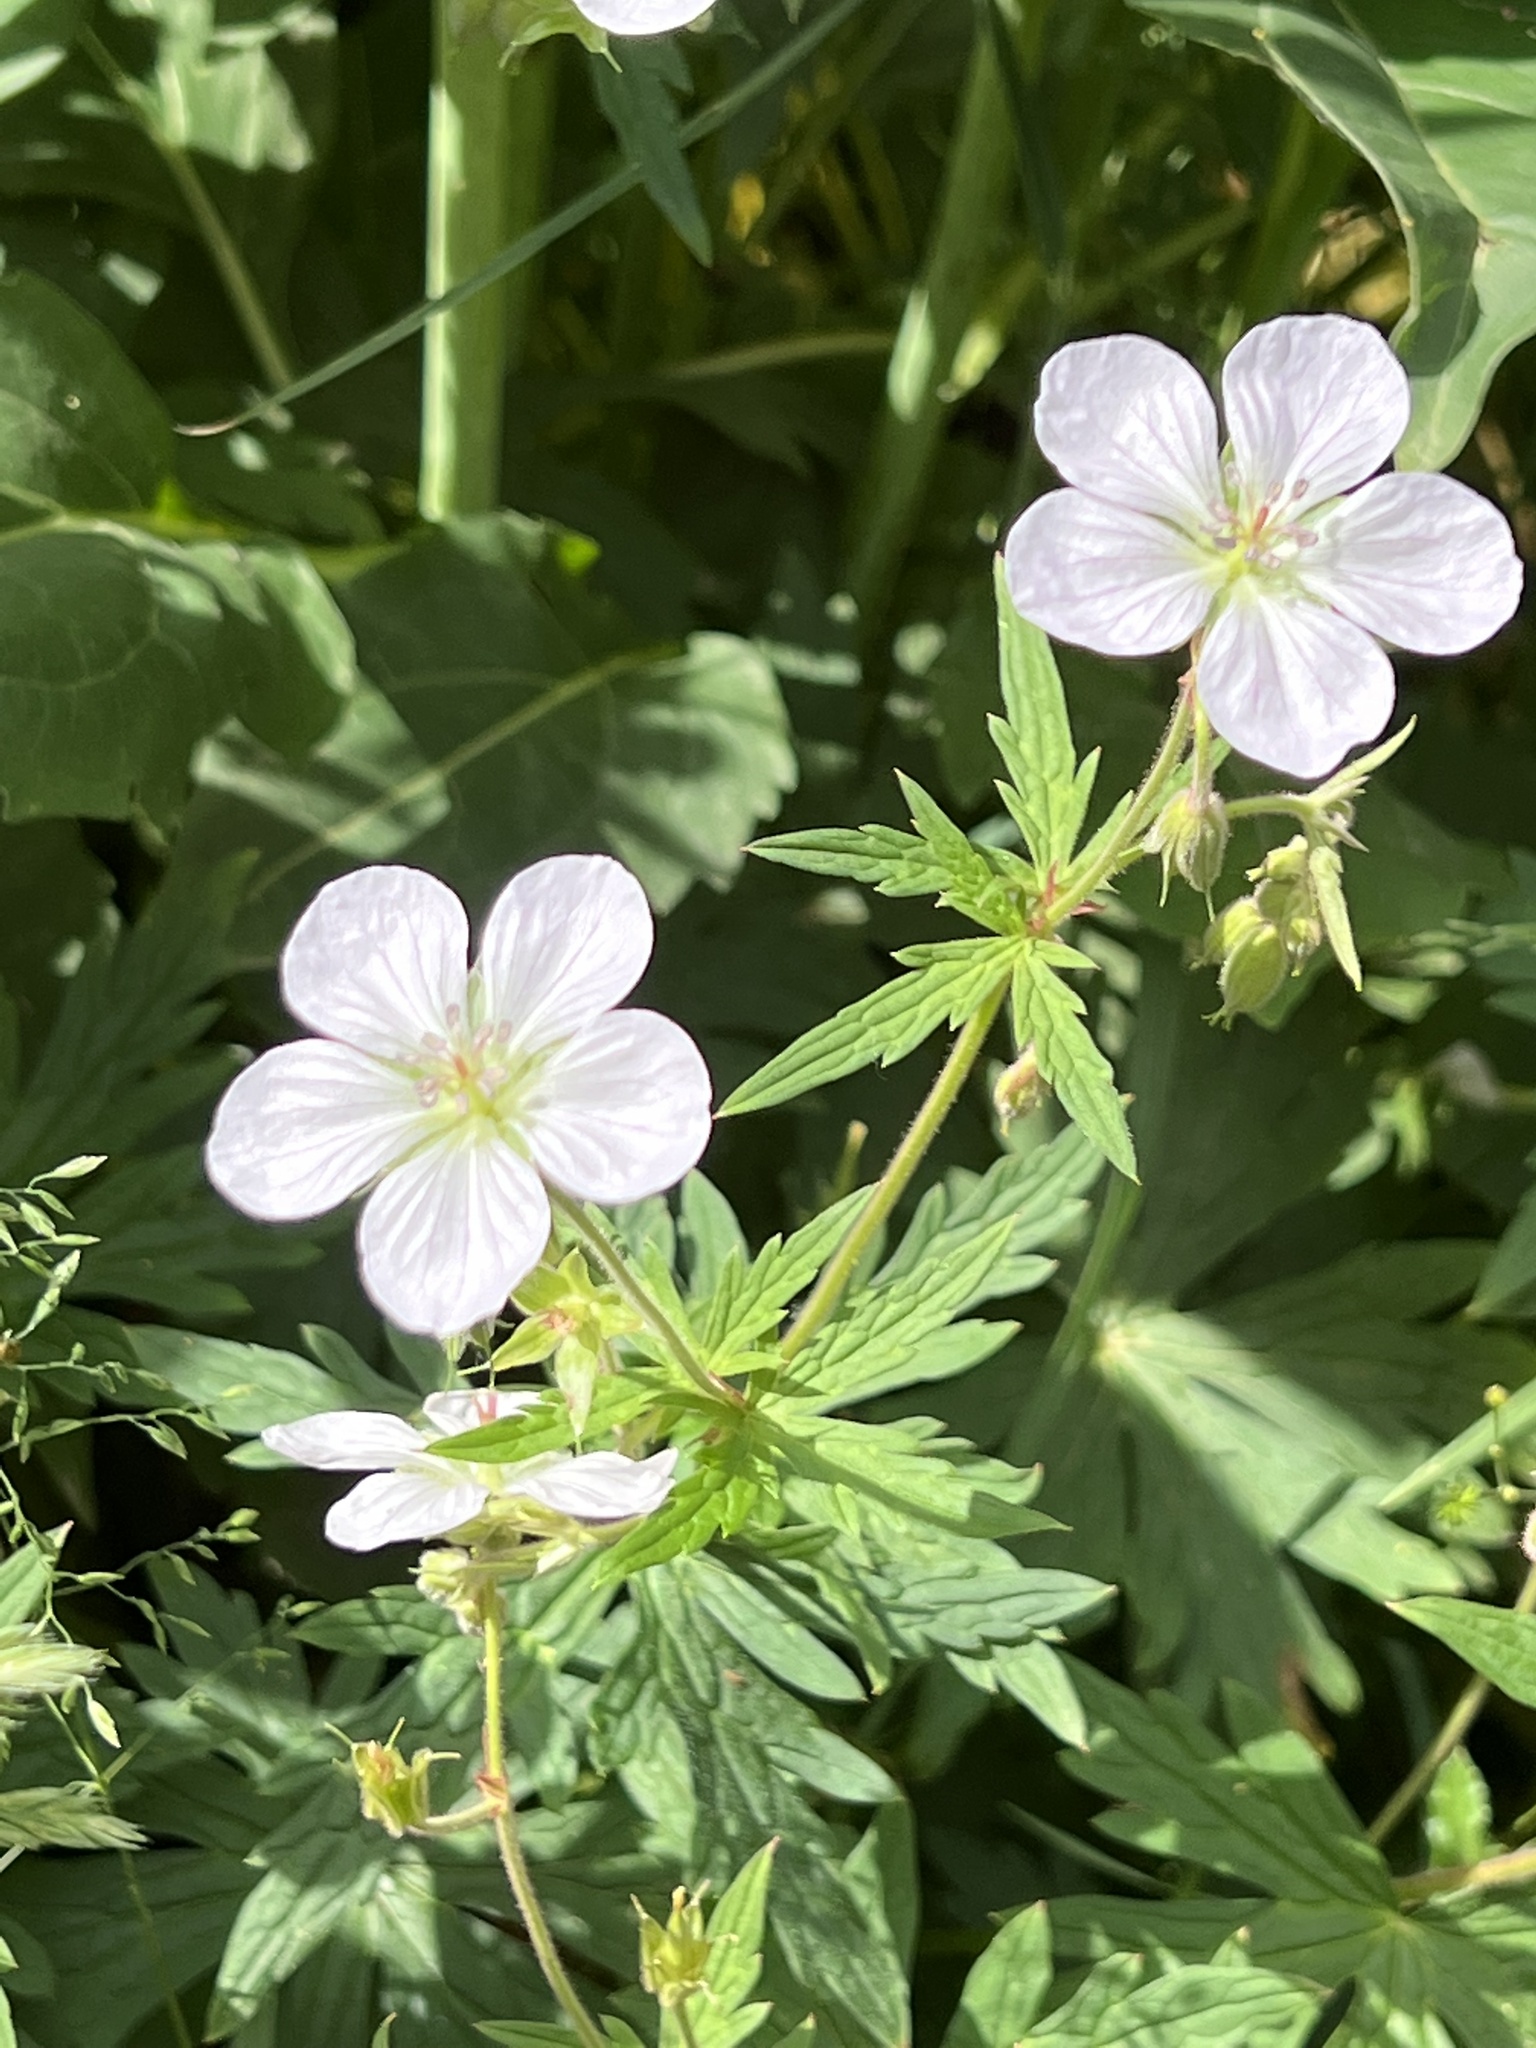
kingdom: Plantae
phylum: Tracheophyta
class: Magnoliopsida
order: Geraniales
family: Geraniaceae
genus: Geranium
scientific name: Geranium richardsonii
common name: Richardson's crane's-bill
